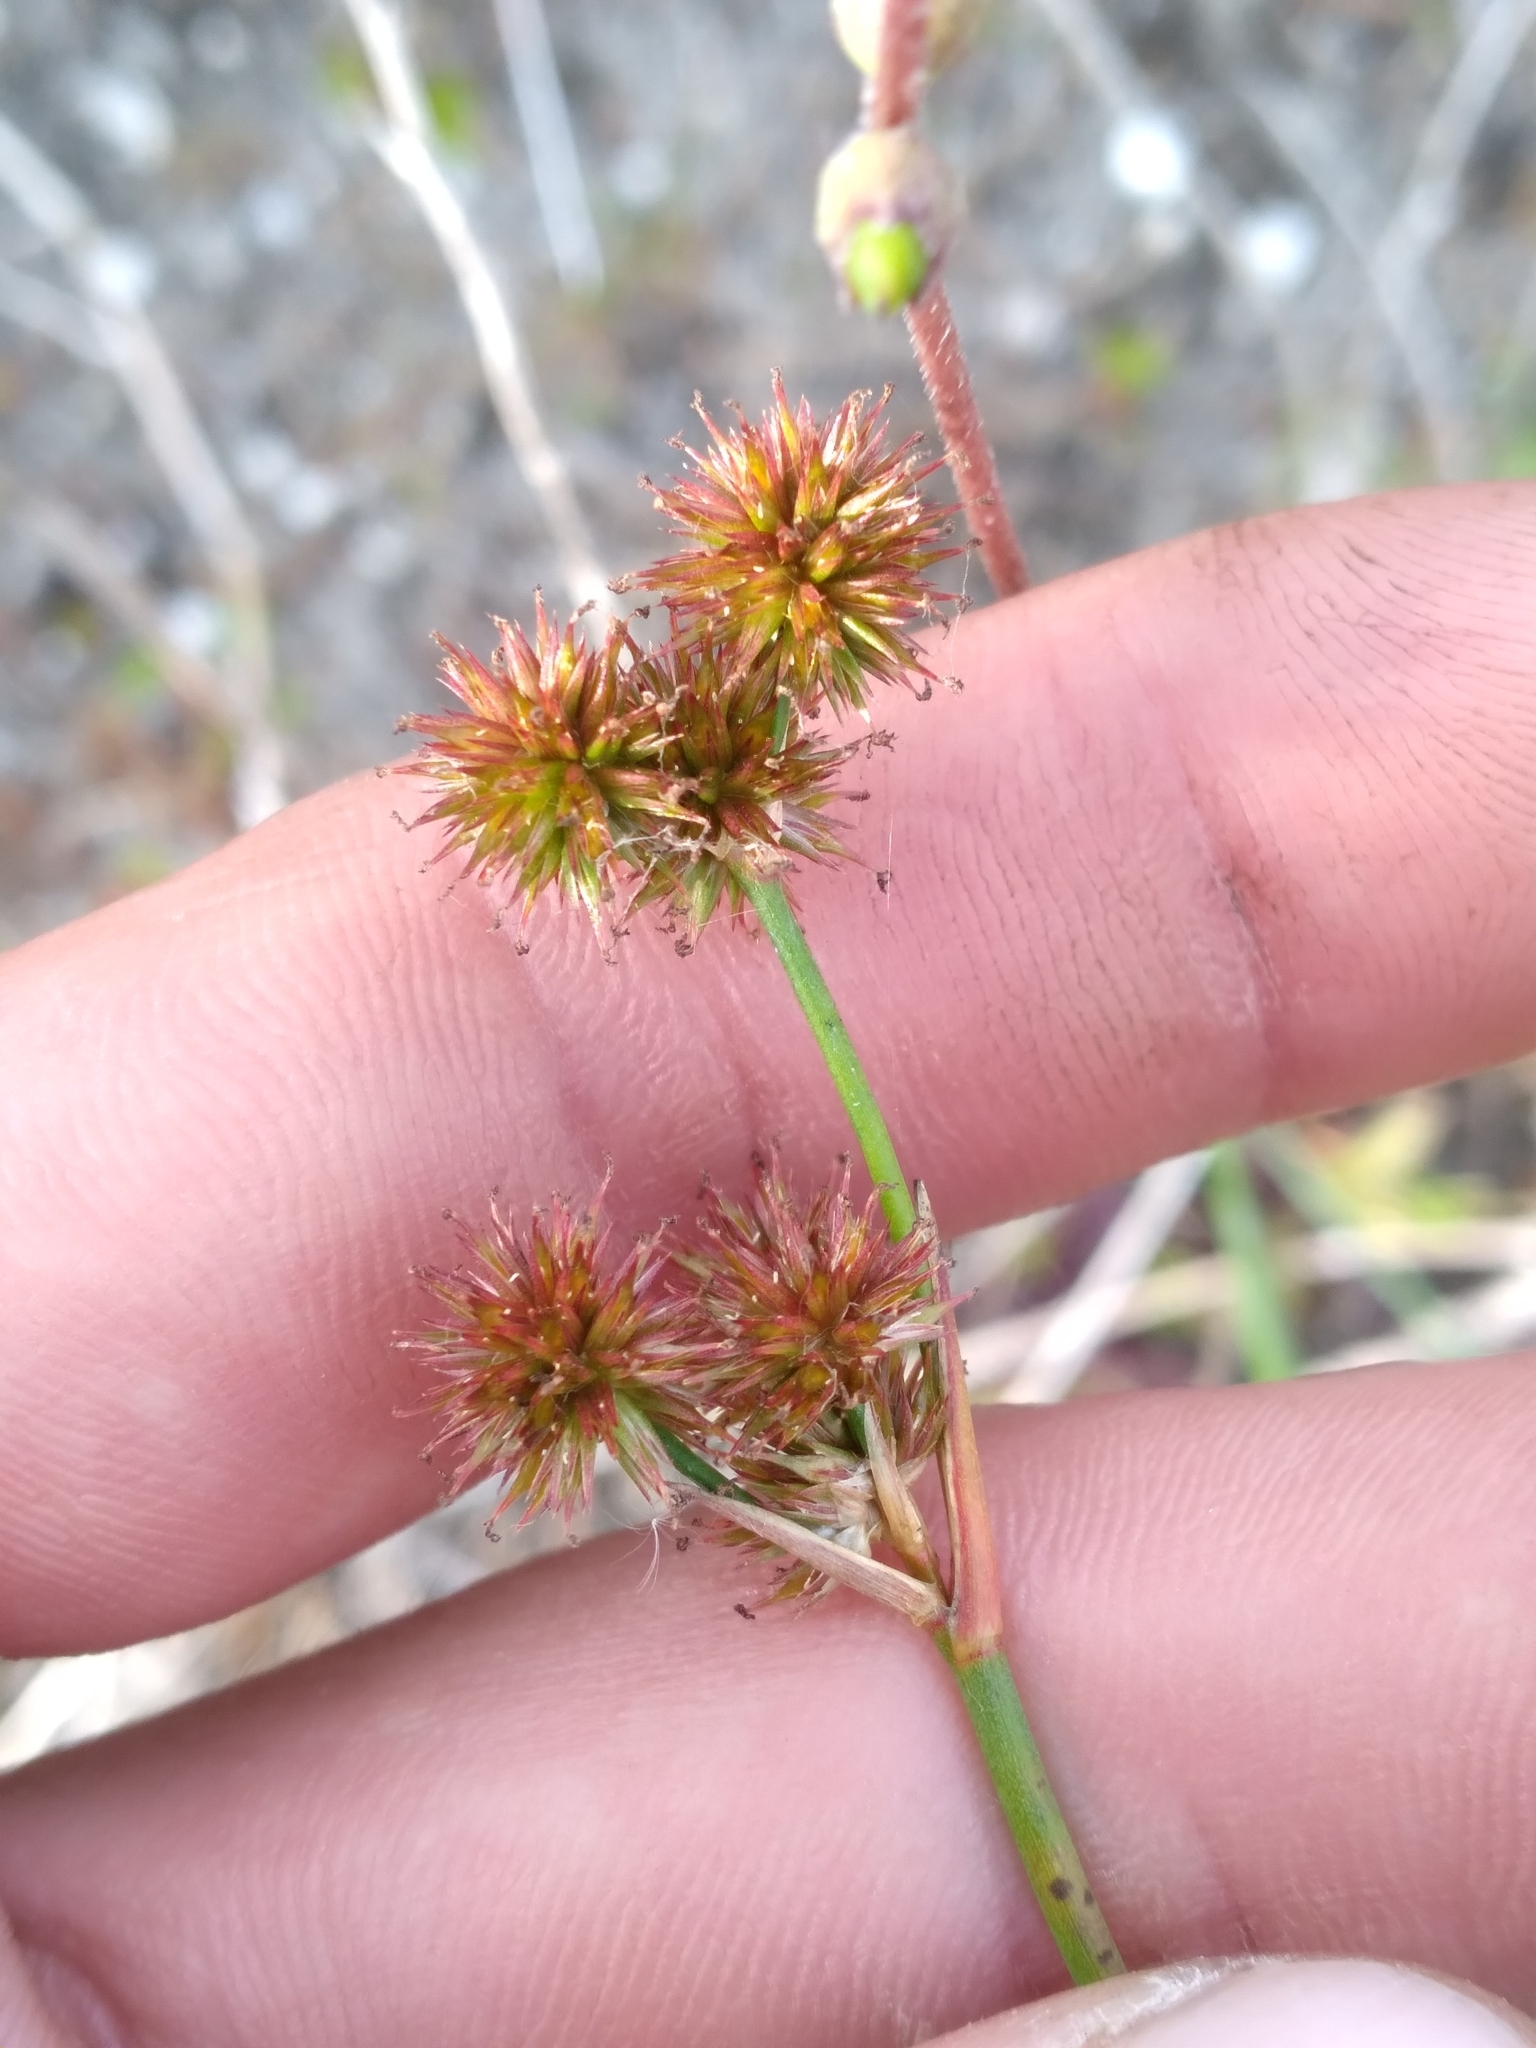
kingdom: Plantae
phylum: Tracheophyta
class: Liliopsida
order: Poales
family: Juncaceae
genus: Juncus
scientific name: Juncus megacephalus
